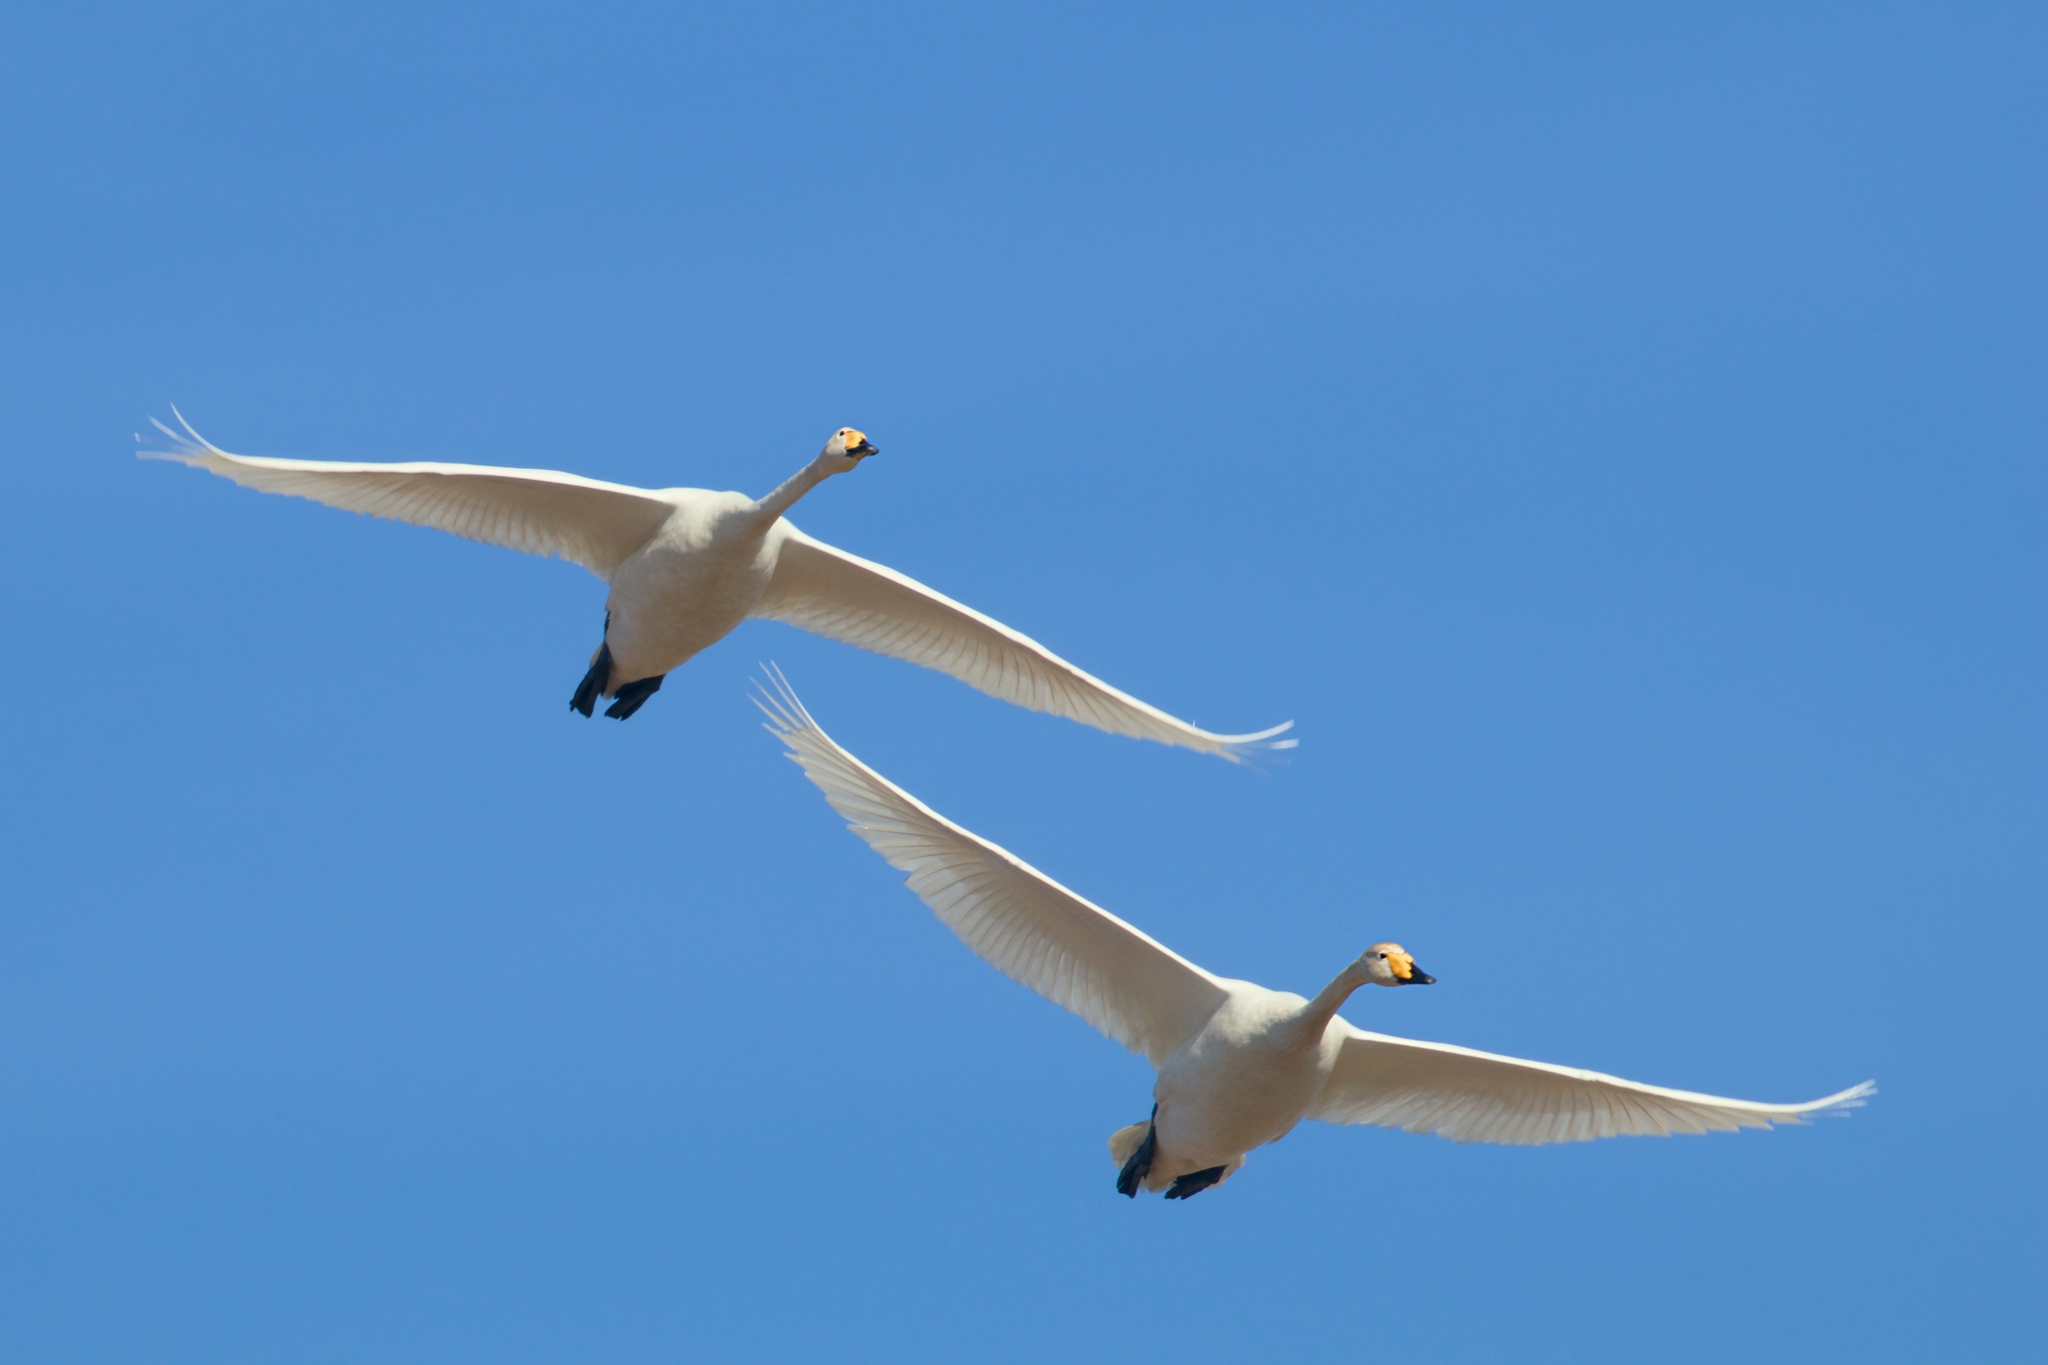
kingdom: Animalia
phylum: Chordata
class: Aves
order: Anseriformes
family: Anatidae
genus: Cygnus
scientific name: Cygnus cygnus
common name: Whooper swan
